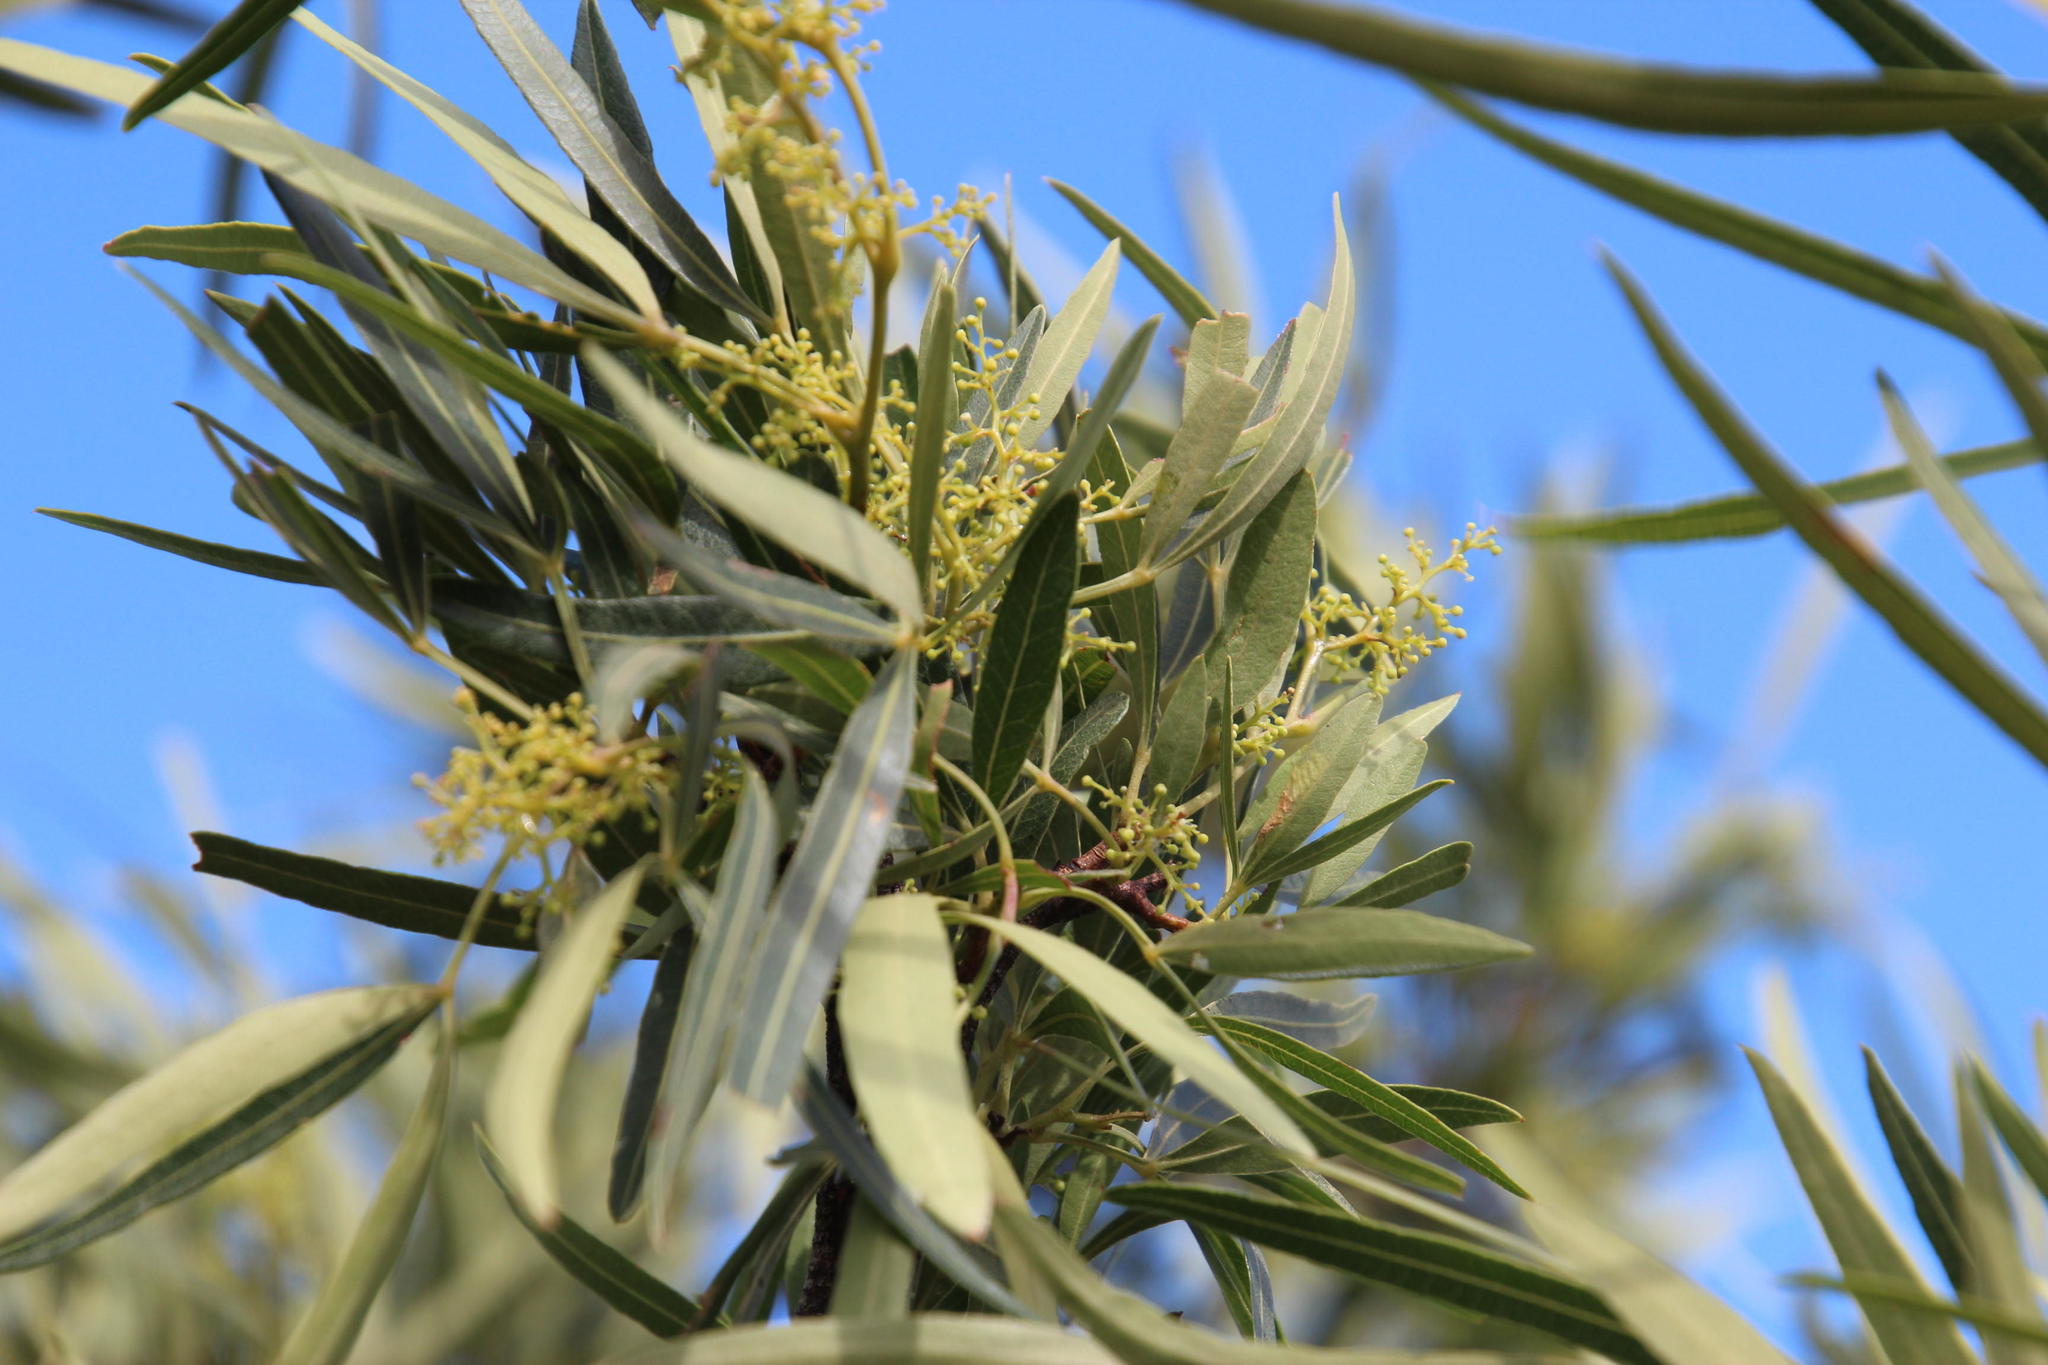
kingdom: Plantae
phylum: Tracheophyta
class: Magnoliopsida
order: Sapindales
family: Anacardiaceae
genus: Searsia
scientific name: Searsia lancea
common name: Cashew
